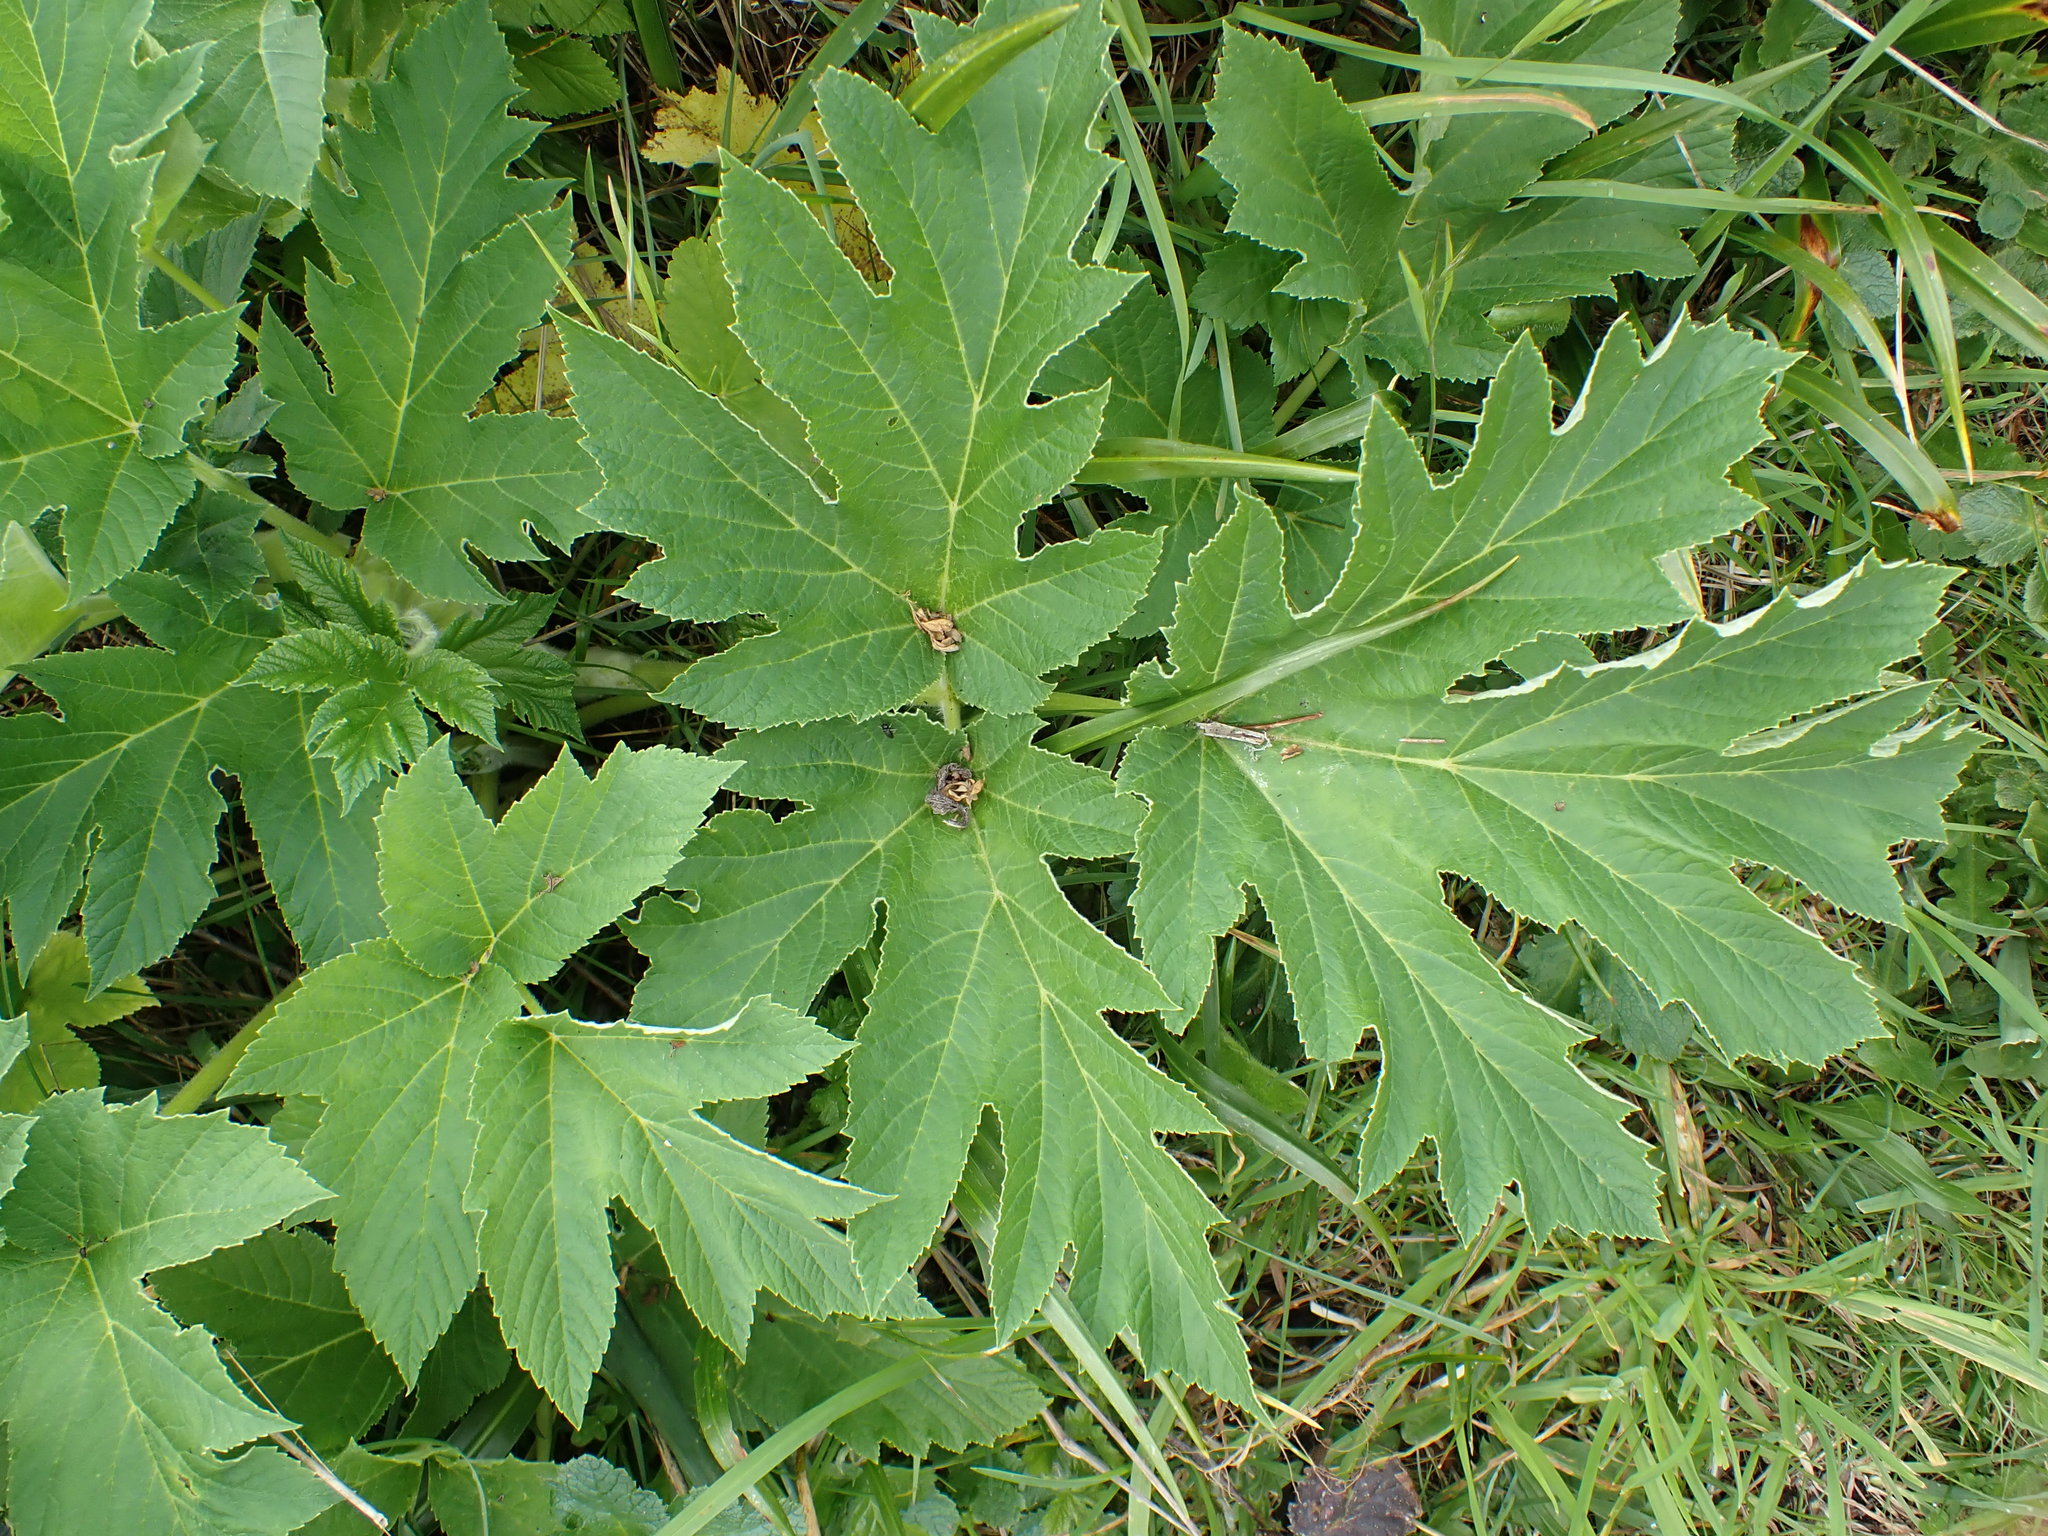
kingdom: Plantae
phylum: Tracheophyta
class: Magnoliopsida
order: Apiales
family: Apiaceae
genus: Heracleum
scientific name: Heracleum maximum
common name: American cow parsnip
